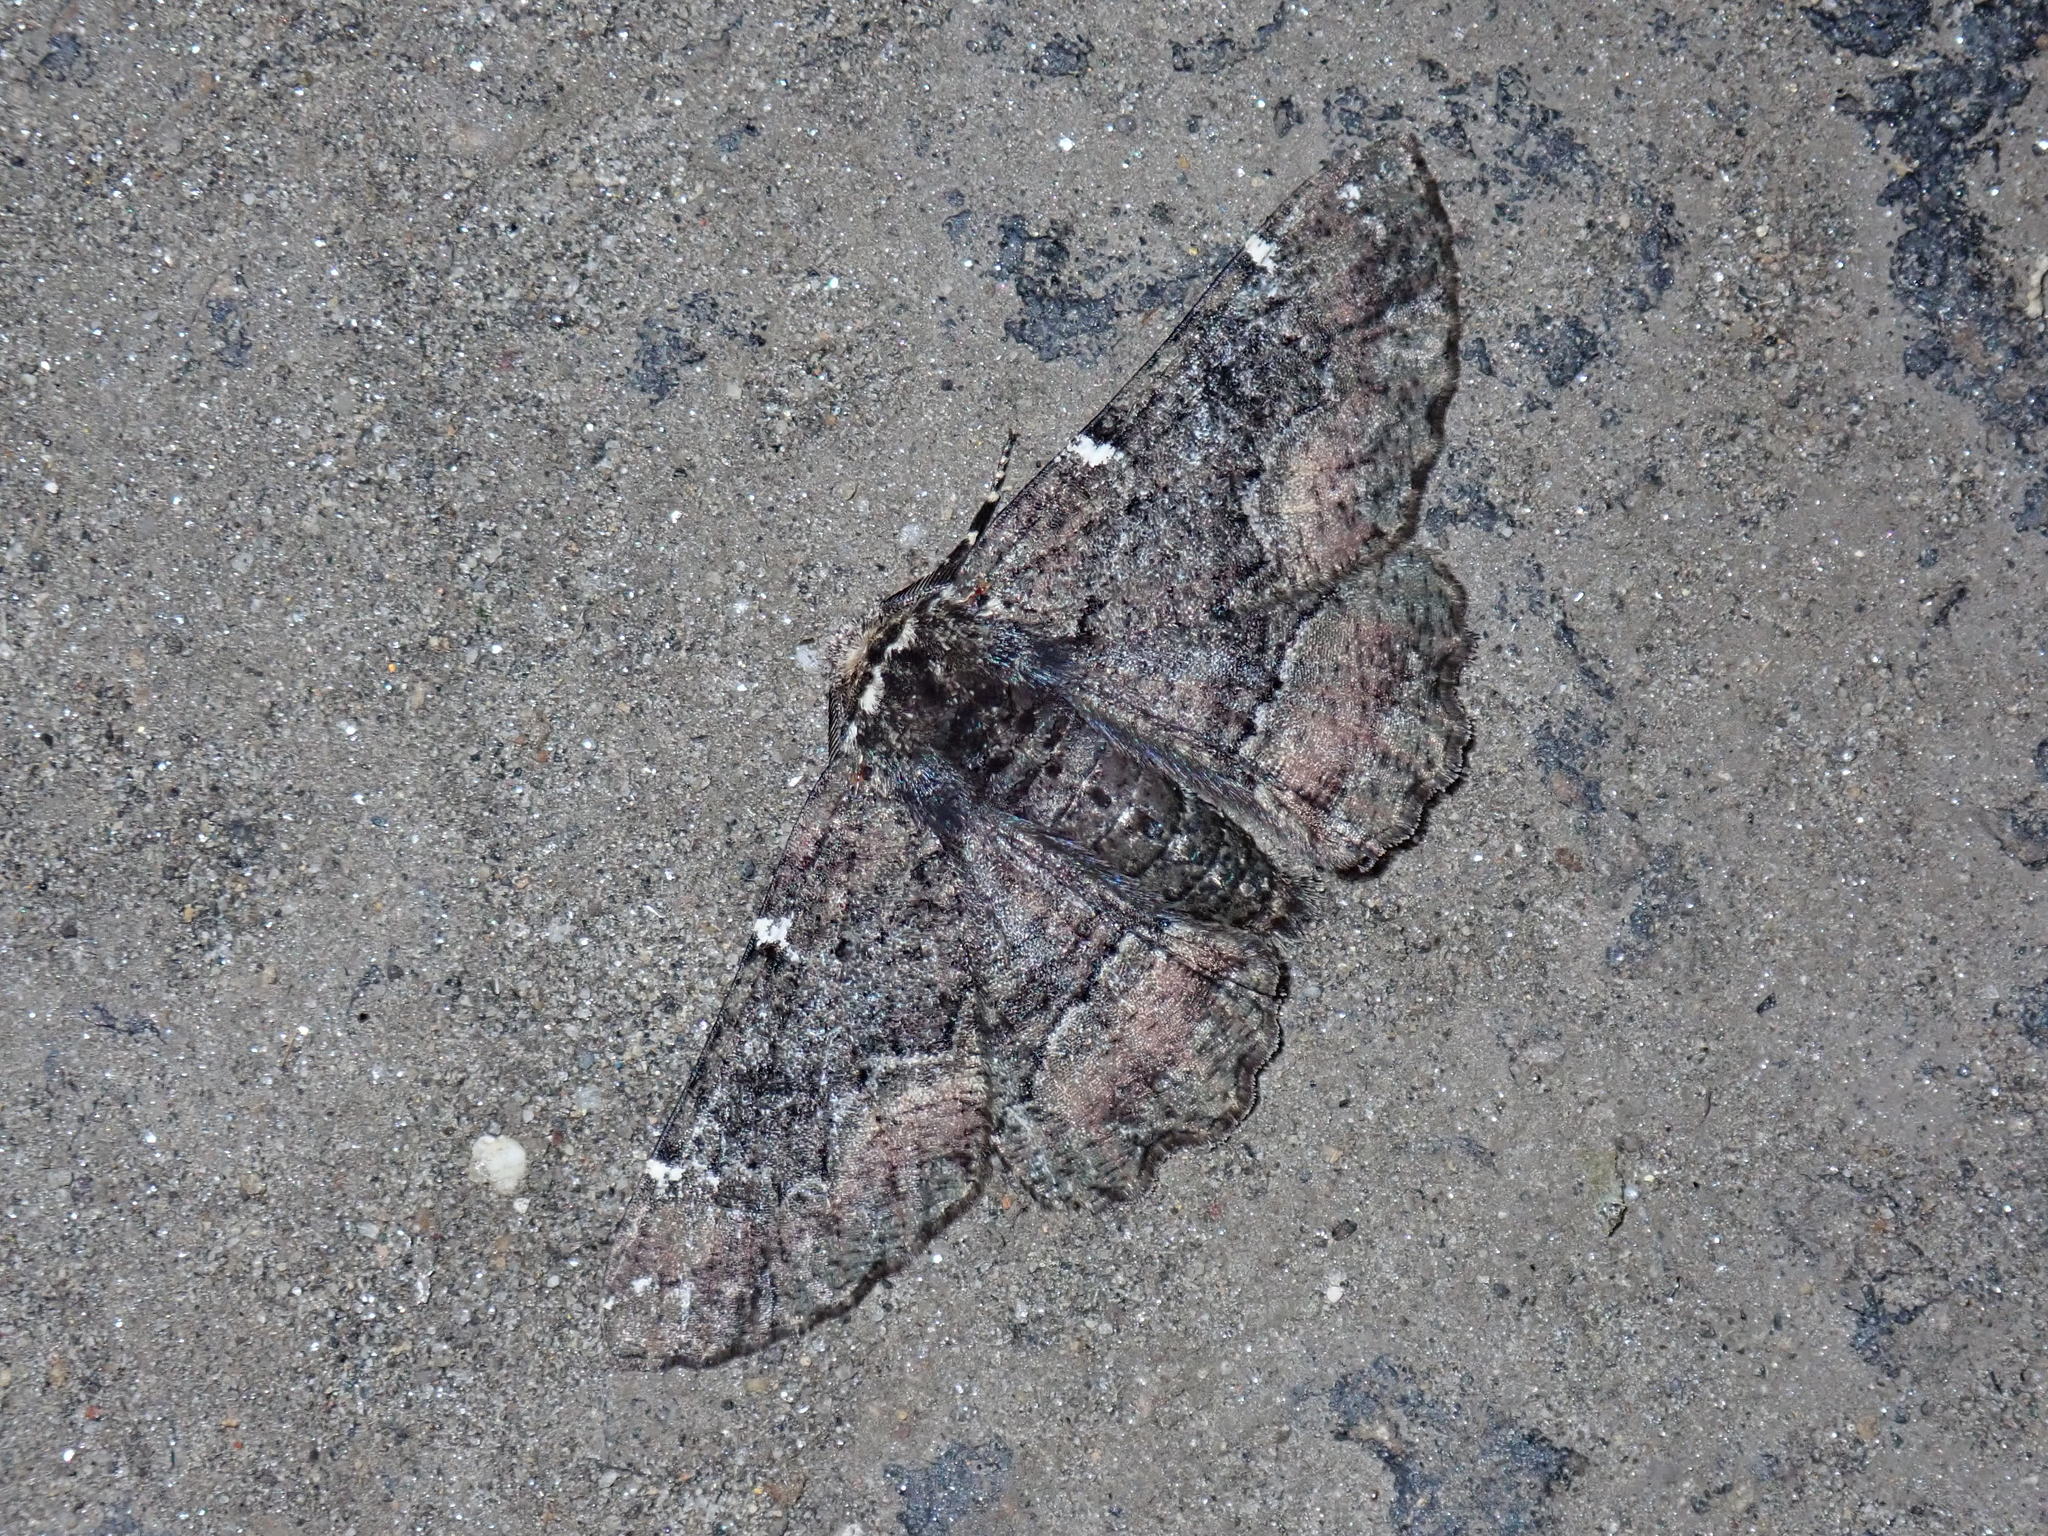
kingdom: Animalia
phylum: Arthropoda
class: Insecta
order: Lepidoptera
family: Geometridae
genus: Phaeoura
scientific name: Phaeoura quernaria
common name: Oak beauty
